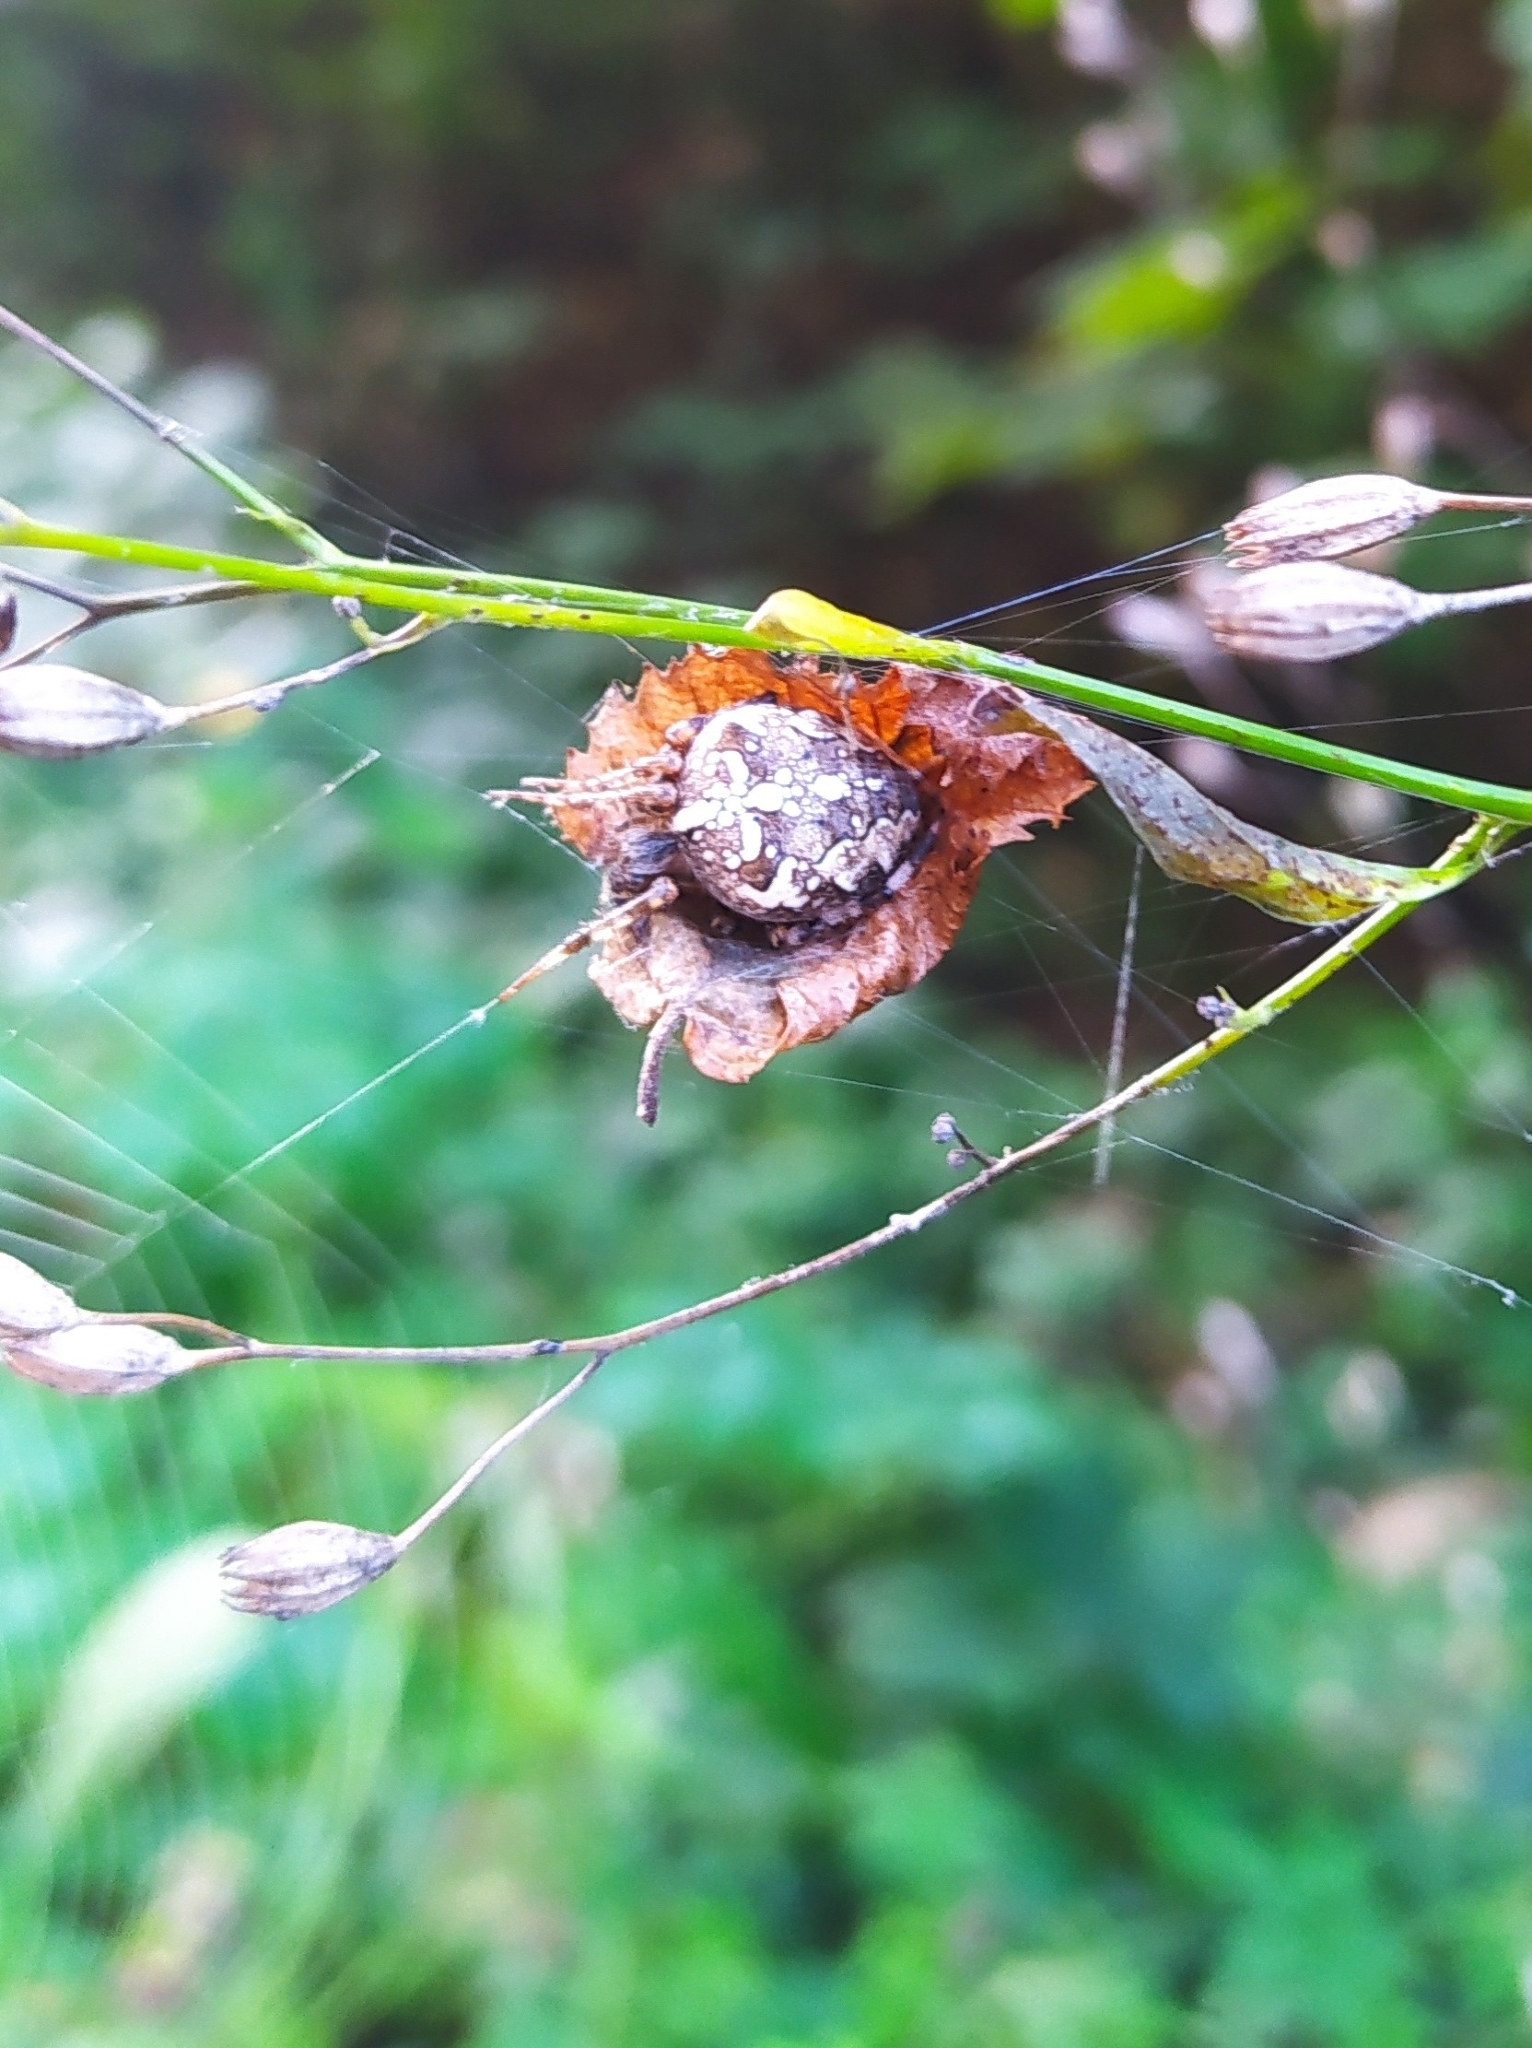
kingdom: Animalia
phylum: Arthropoda
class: Arachnida
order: Araneae
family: Araneidae
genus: Araneus
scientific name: Araneus diadematus
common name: Cross orbweaver
